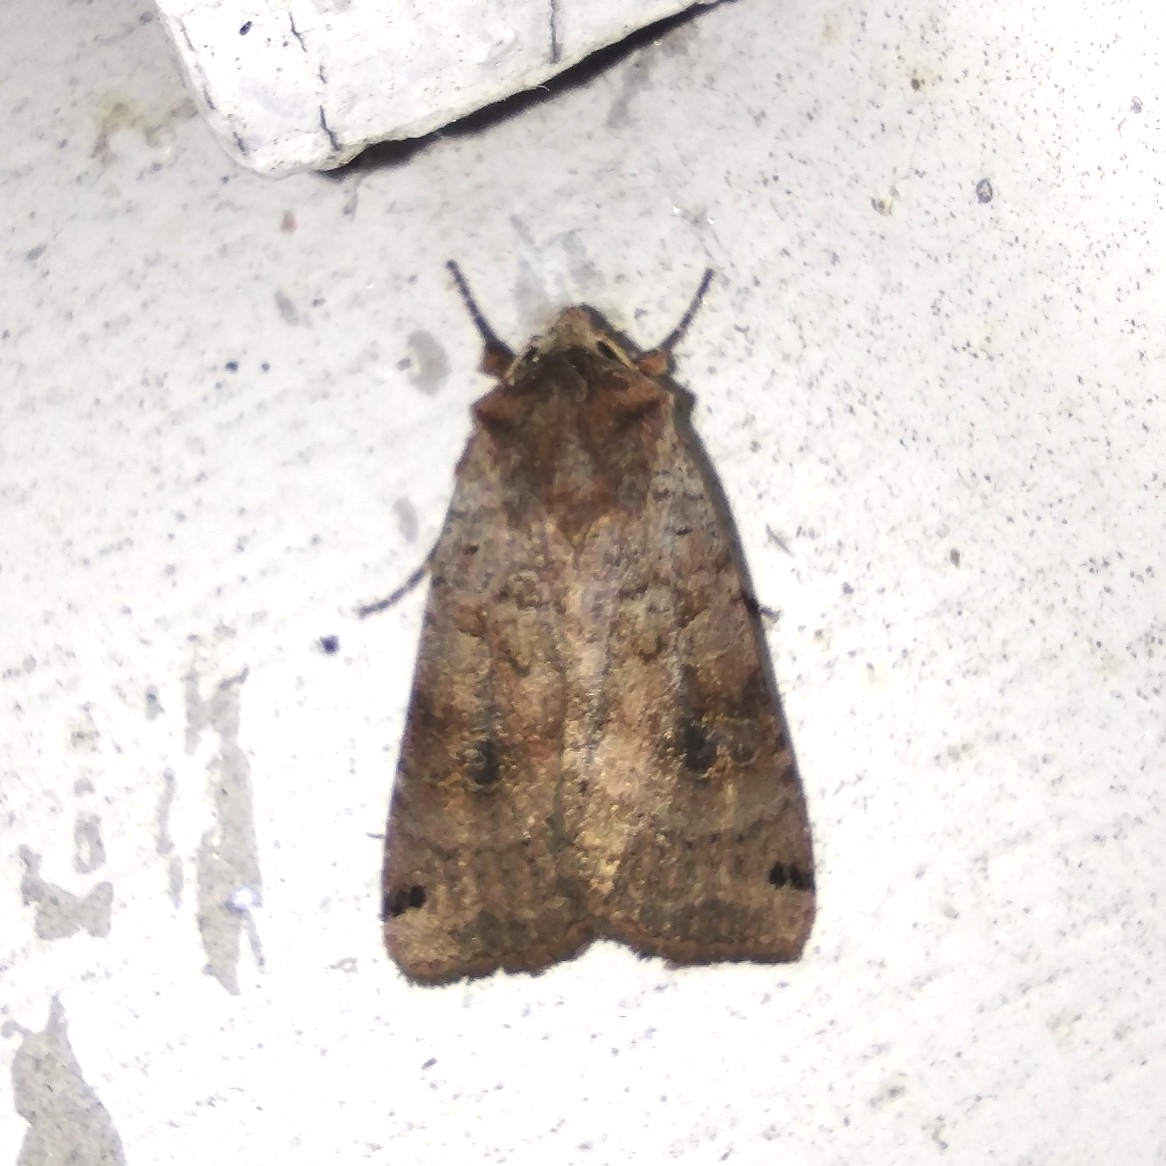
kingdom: Animalia
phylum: Arthropoda
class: Insecta
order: Lepidoptera
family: Noctuidae
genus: Xestia
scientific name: Xestia baja
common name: Dotted clay
